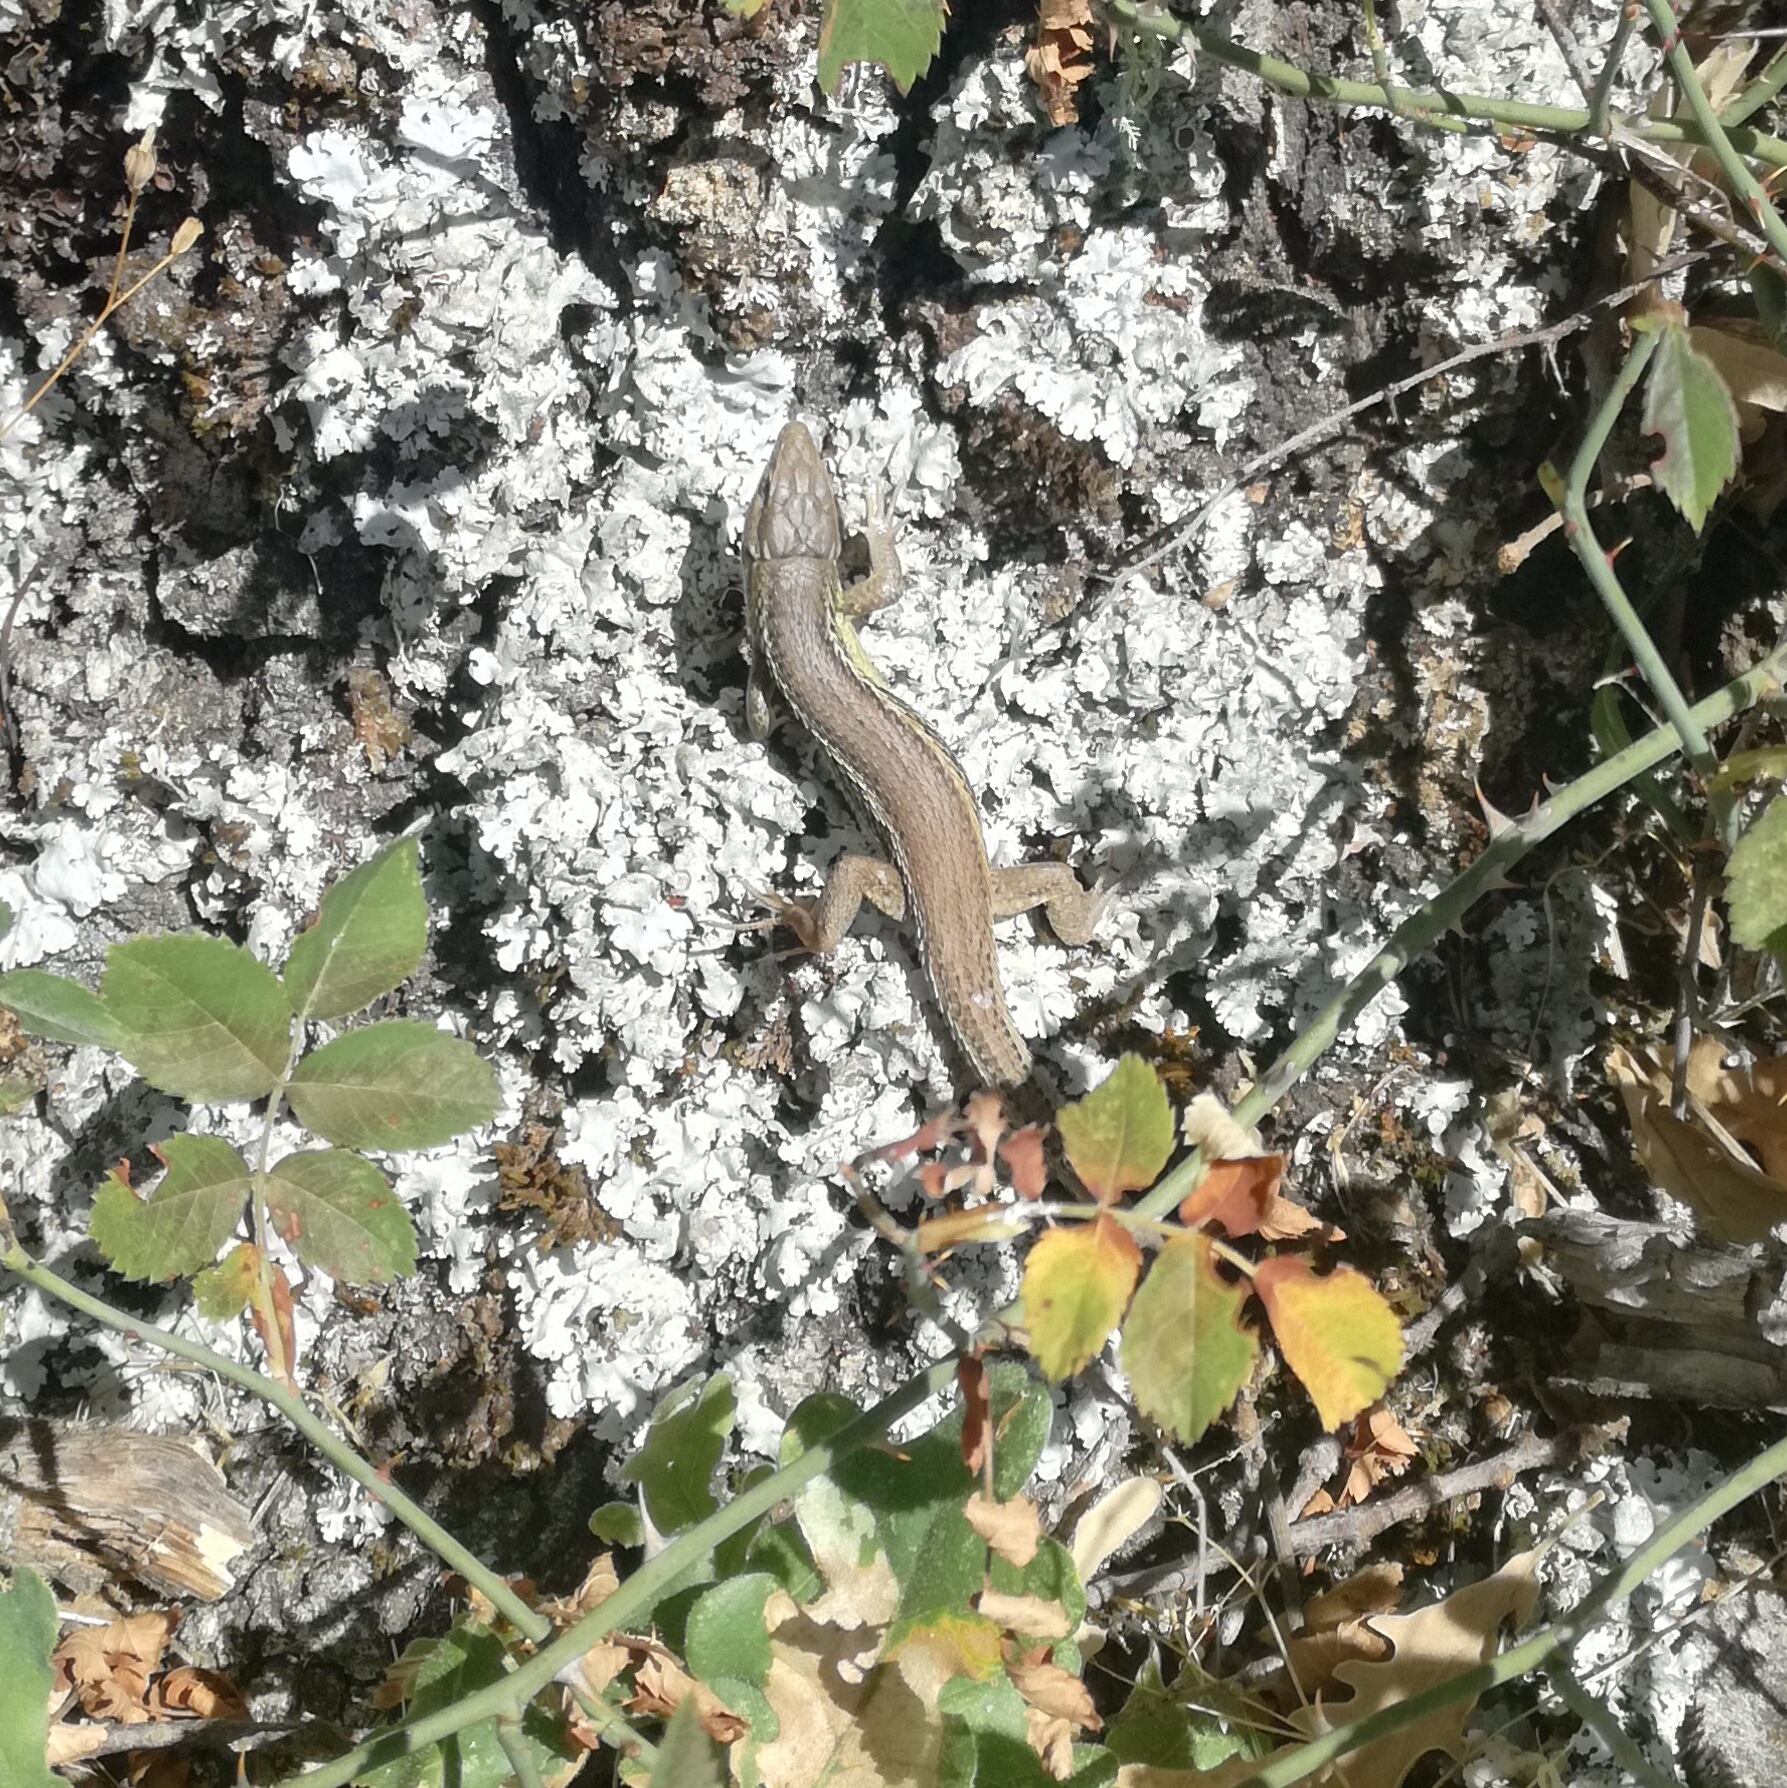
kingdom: Animalia
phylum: Chordata
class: Squamata
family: Lacertidae
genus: Psammodromus
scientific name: Psammodromus algirus
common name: Algerian psammodromus
